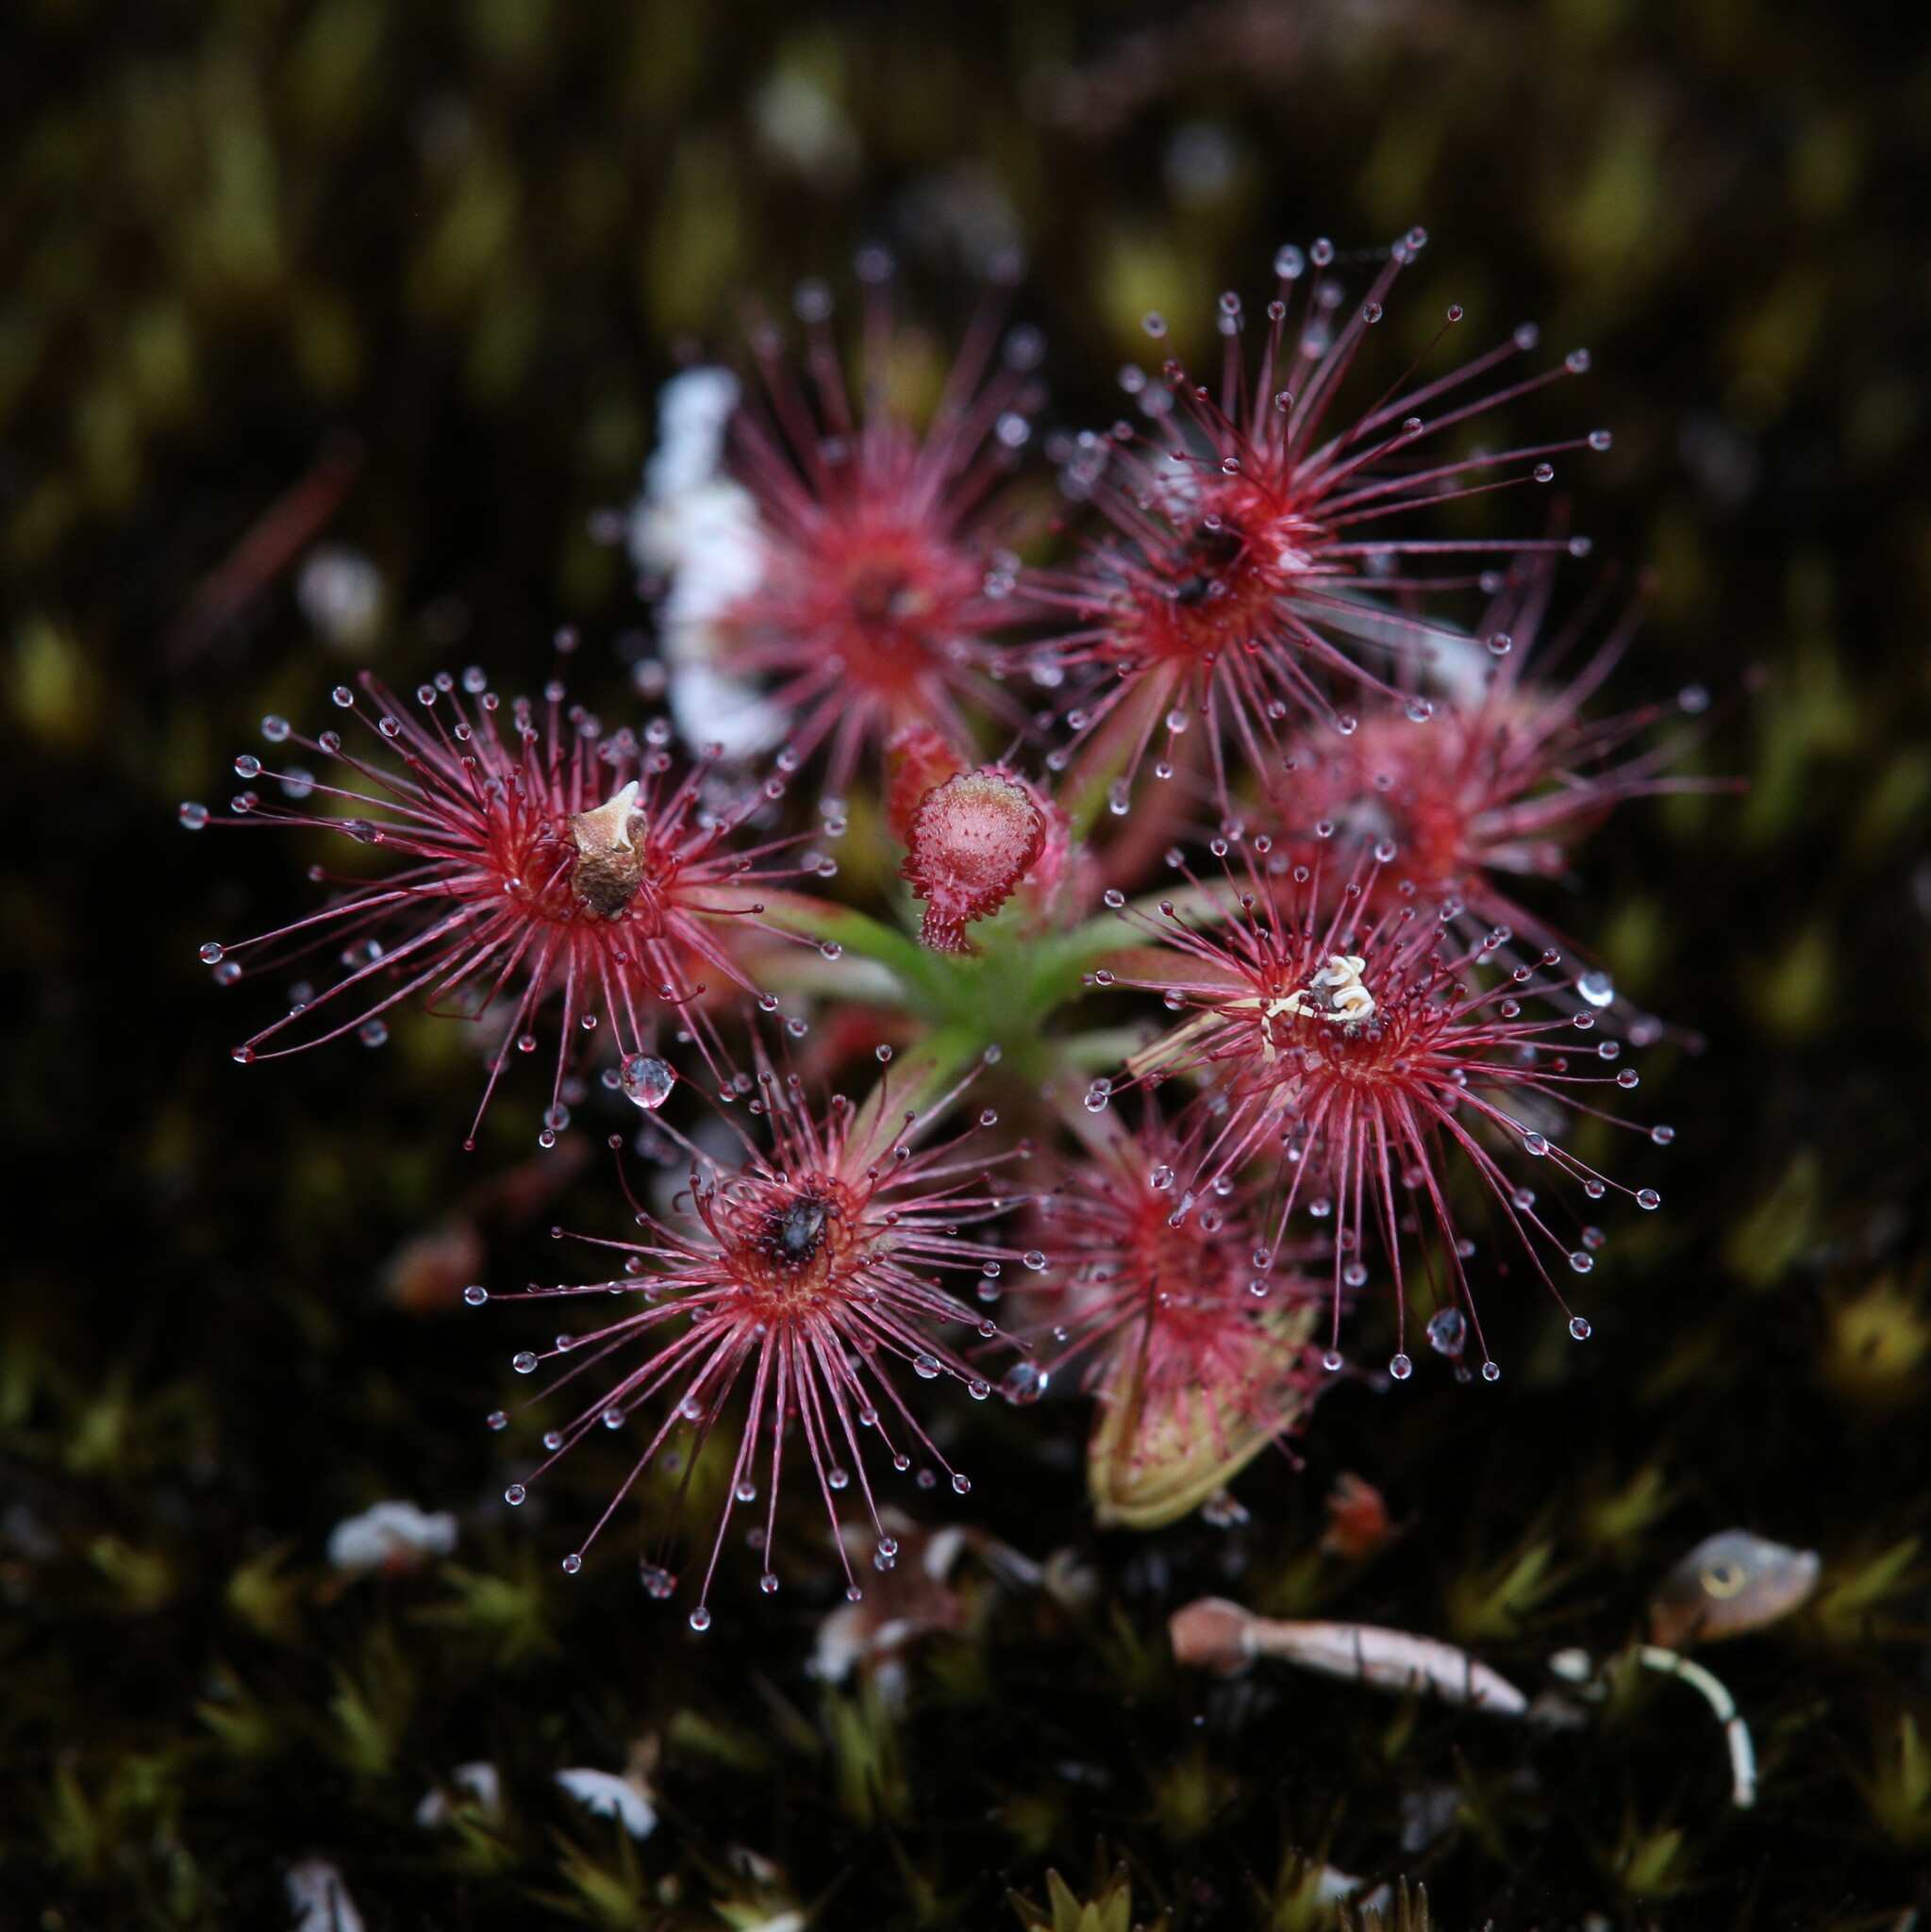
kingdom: Plantae
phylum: Tracheophyta
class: Magnoliopsida
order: Caryophyllales
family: Droseraceae
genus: Drosera
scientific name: Drosera paleacea
